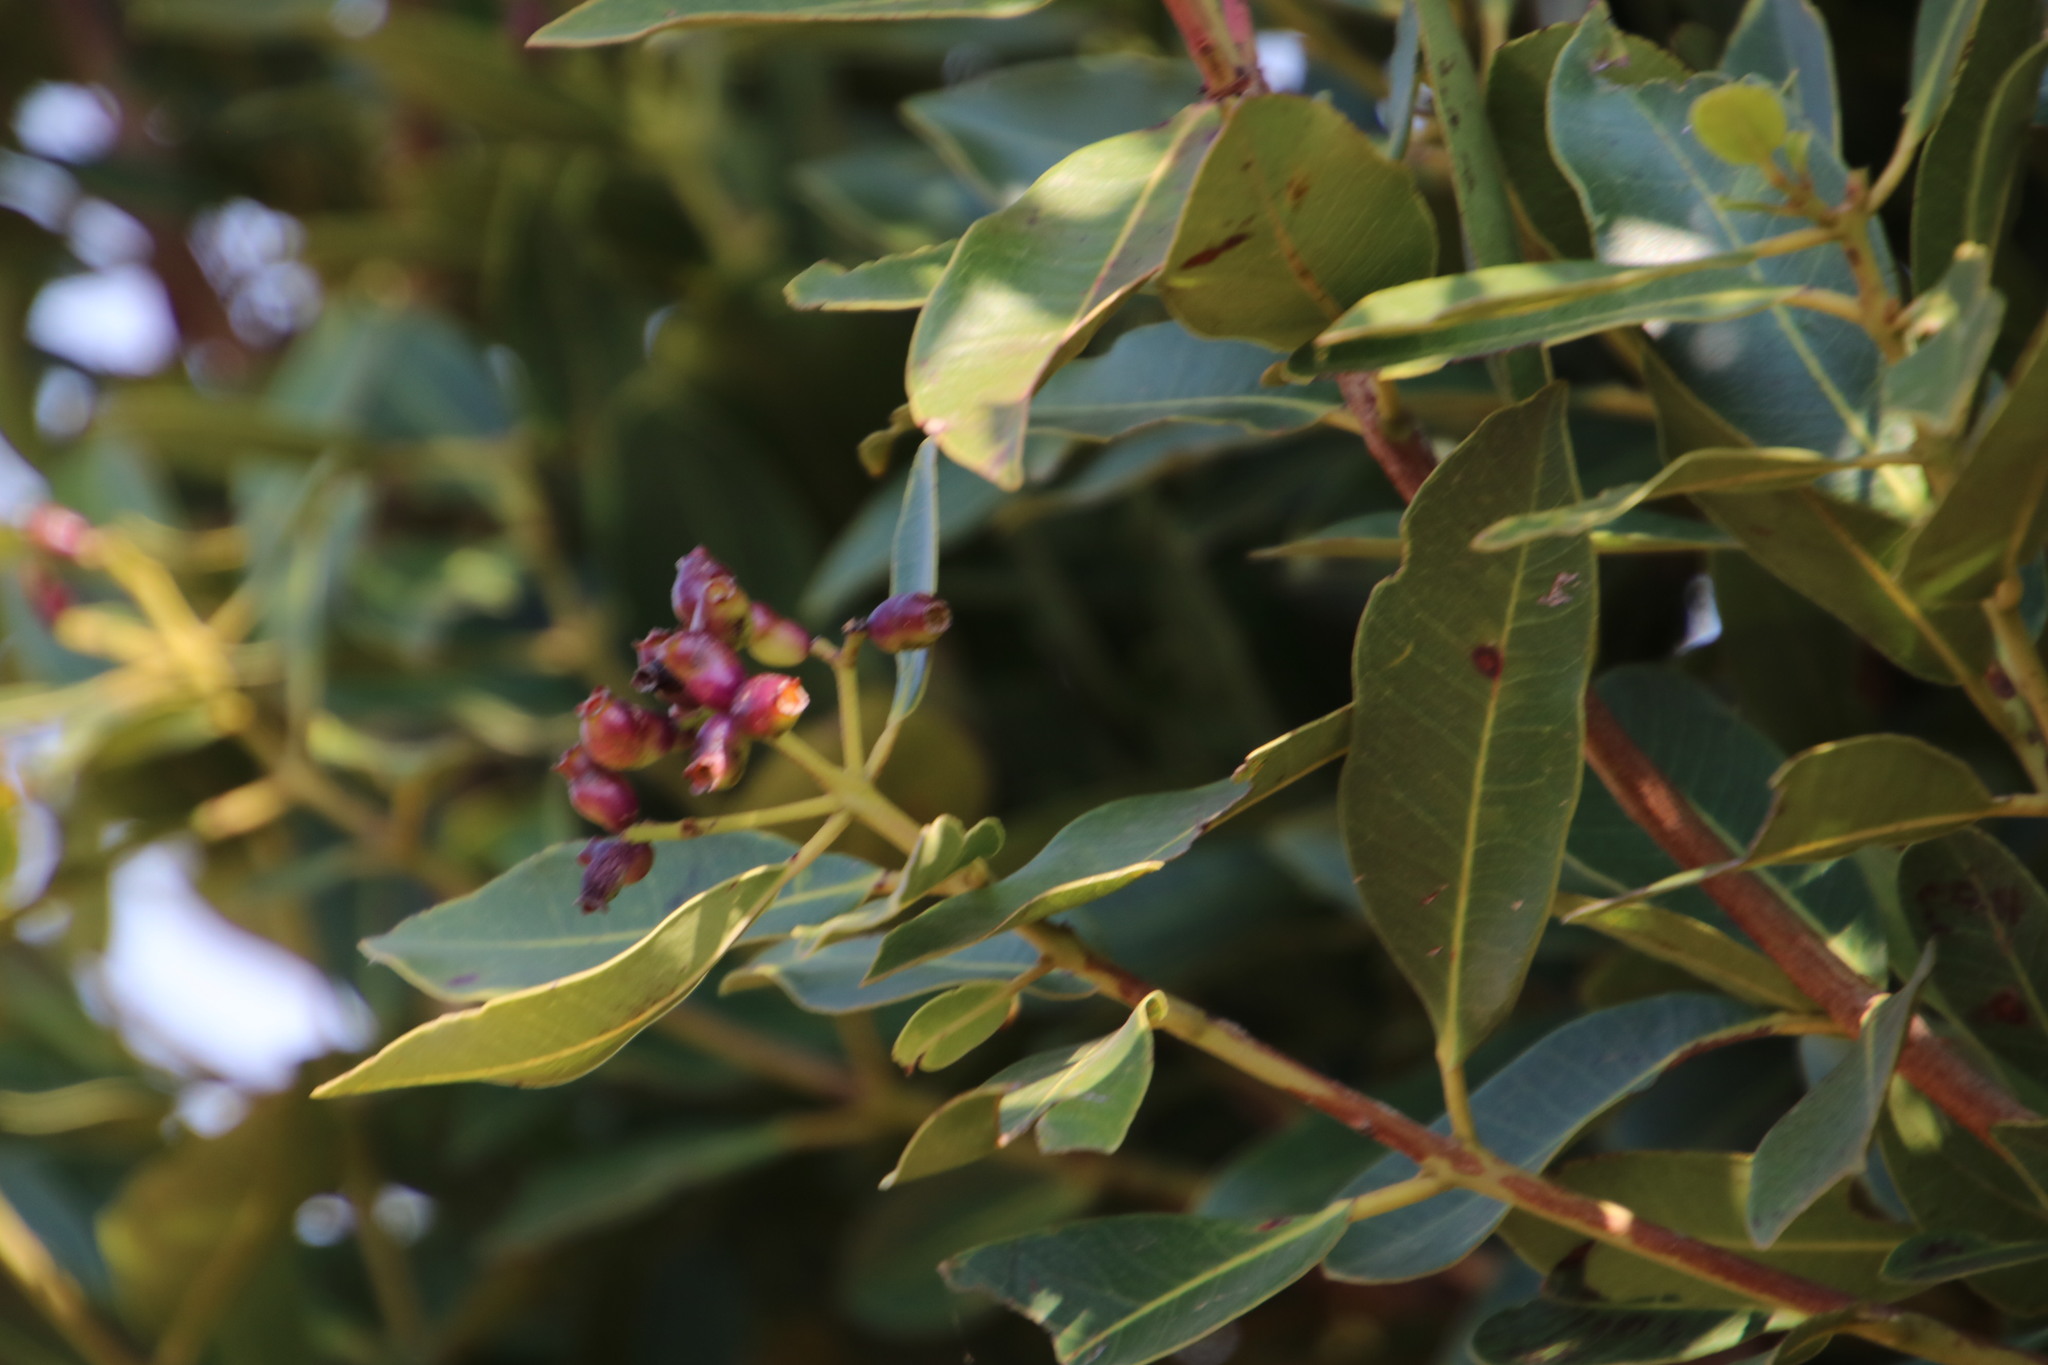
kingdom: Plantae
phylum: Tracheophyta
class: Magnoliopsida
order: Myrtales
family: Myrtaceae
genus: Syzygium
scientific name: Syzygium intermedium
